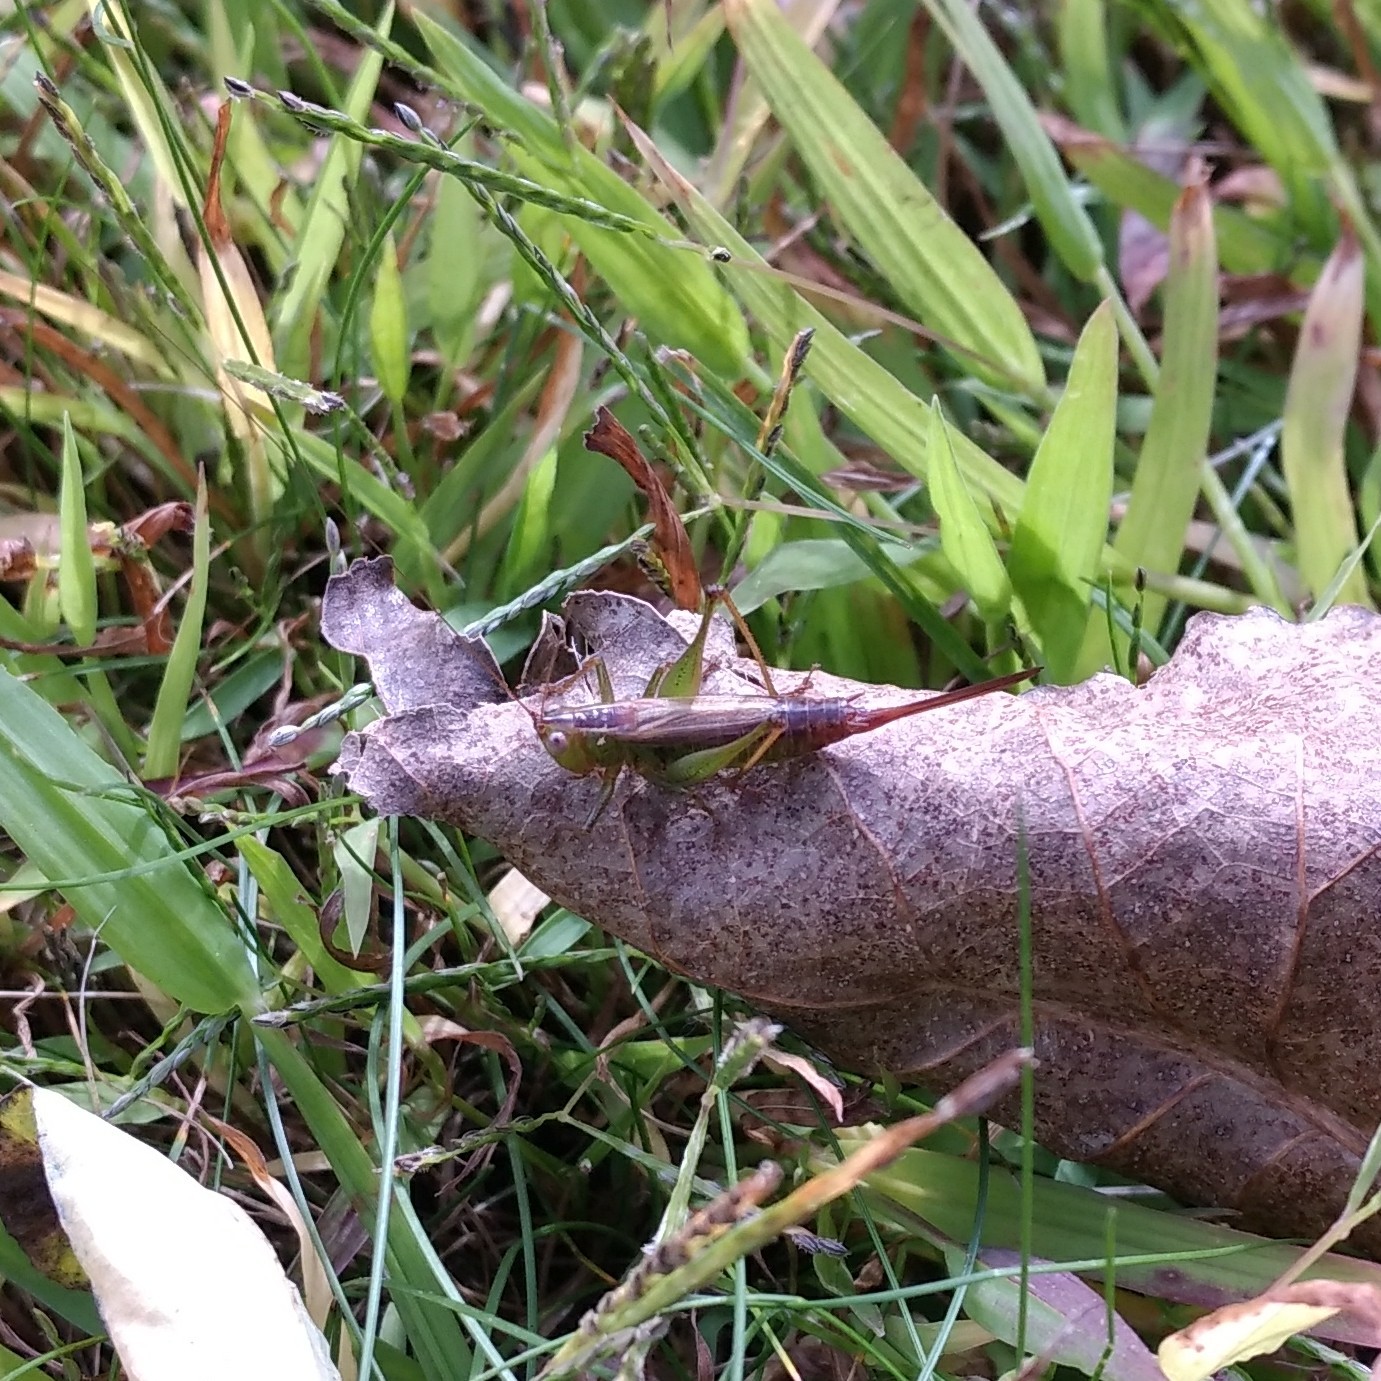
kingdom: Animalia
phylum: Arthropoda
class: Insecta
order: Orthoptera
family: Tettigoniidae
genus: Conocephalus
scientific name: Conocephalus brevipennis
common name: Short-winged meadow katydid
